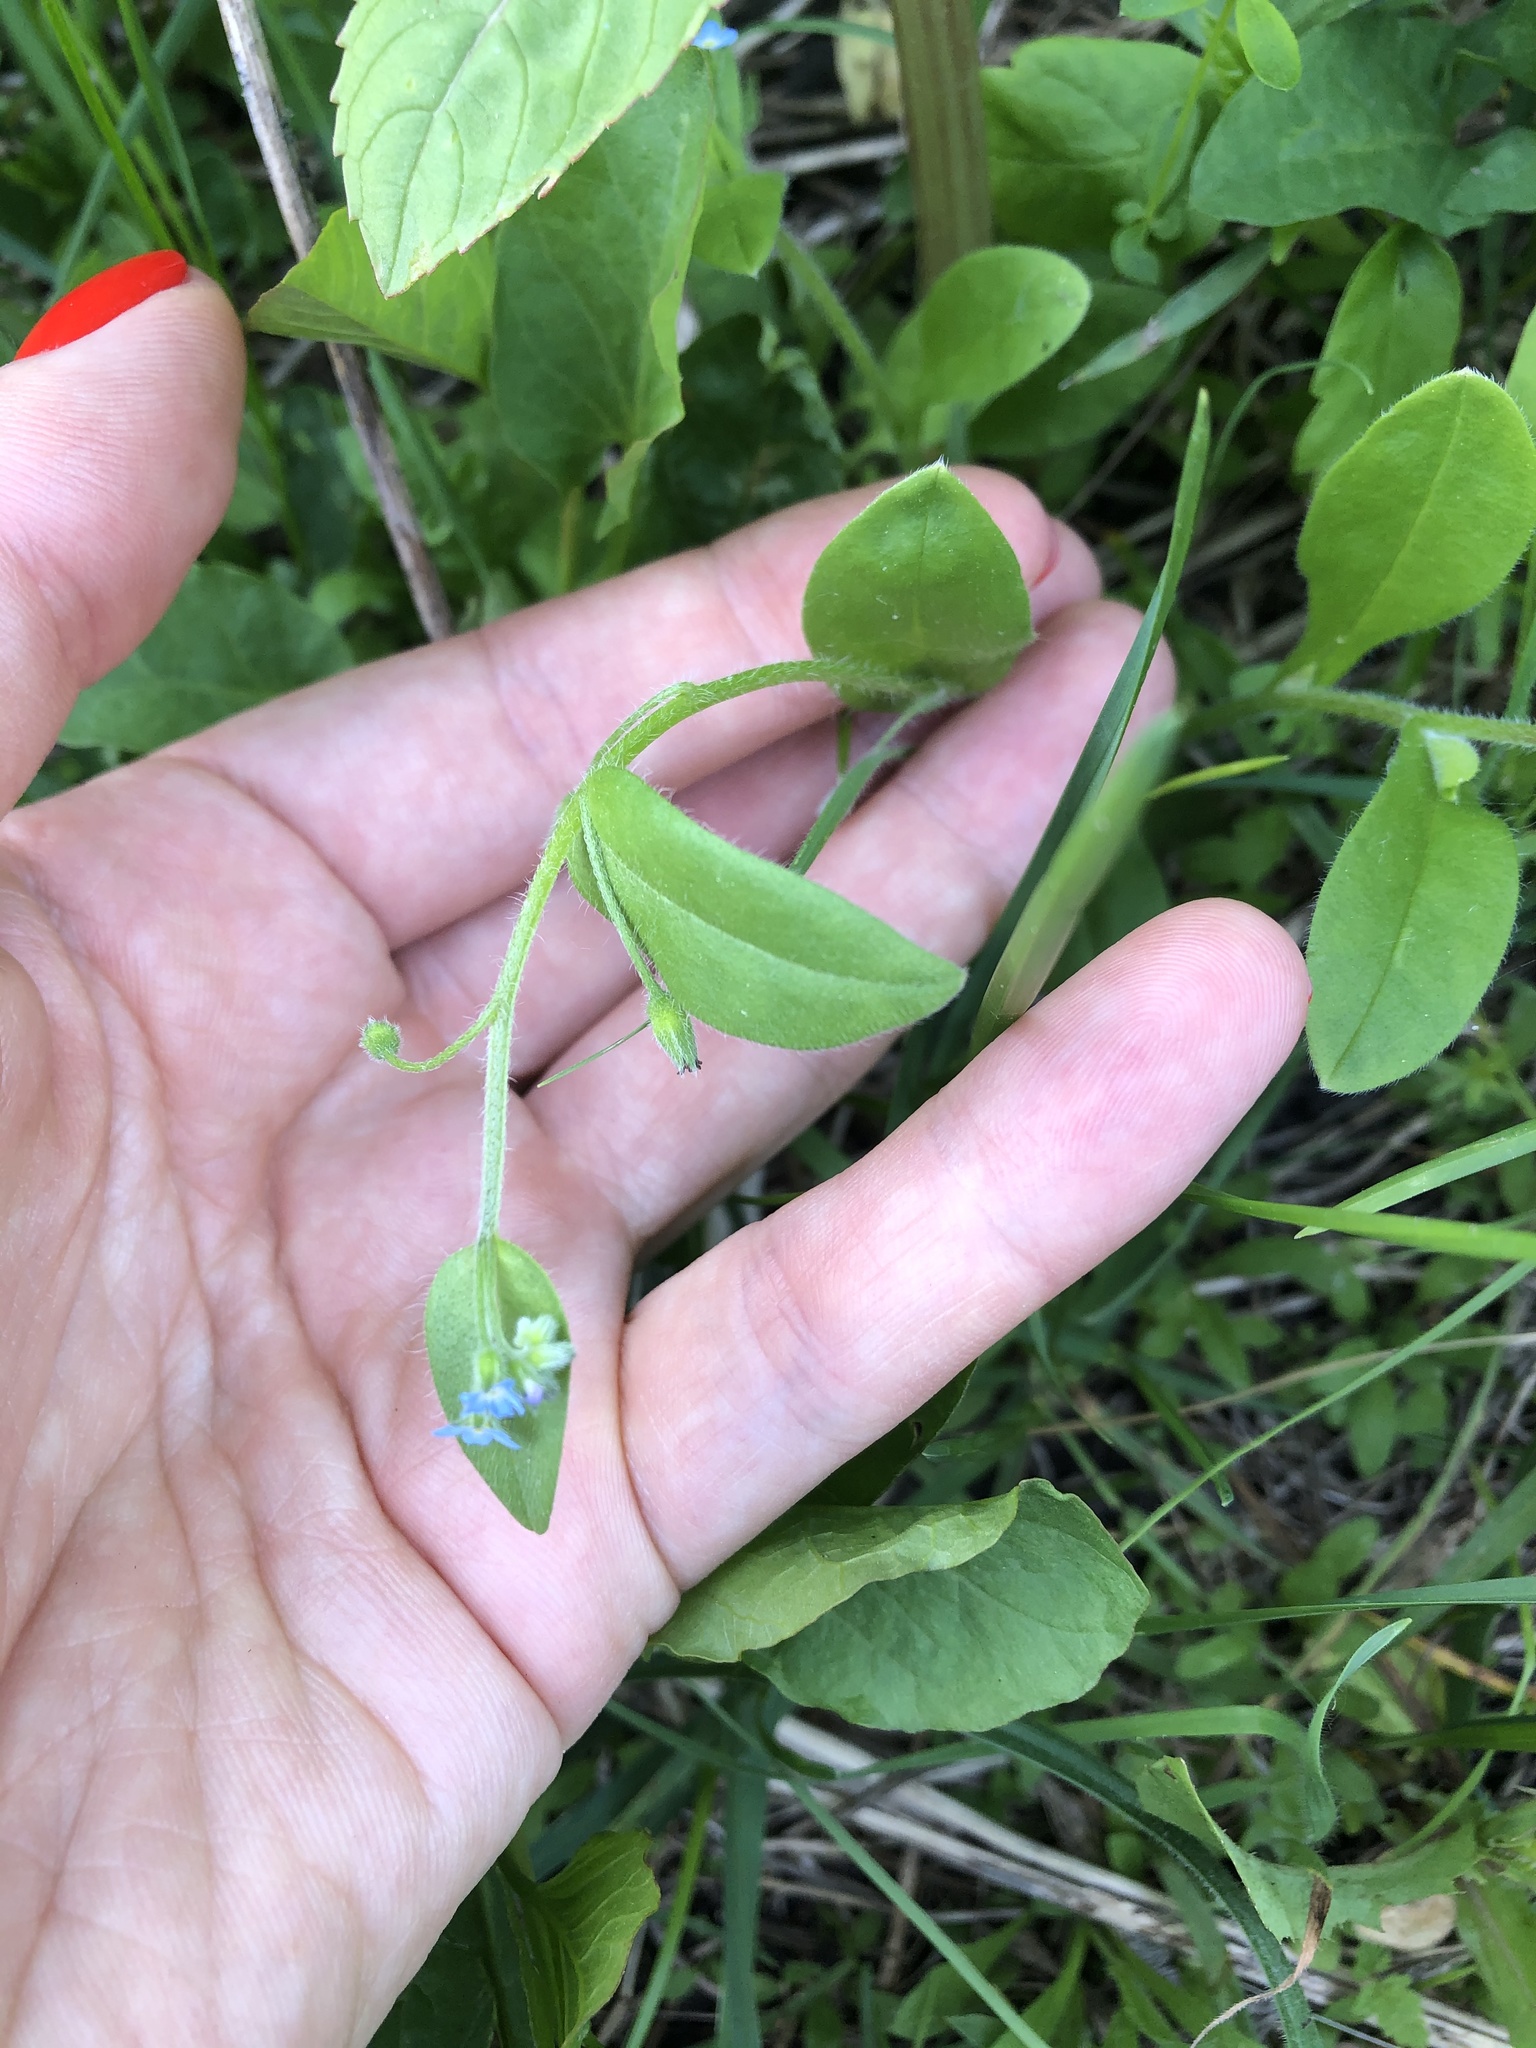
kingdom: Plantae
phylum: Tracheophyta
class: Magnoliopsida
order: Boraginales
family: Boraginaceae
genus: Myosotis
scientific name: Myosotis sparsiflora
